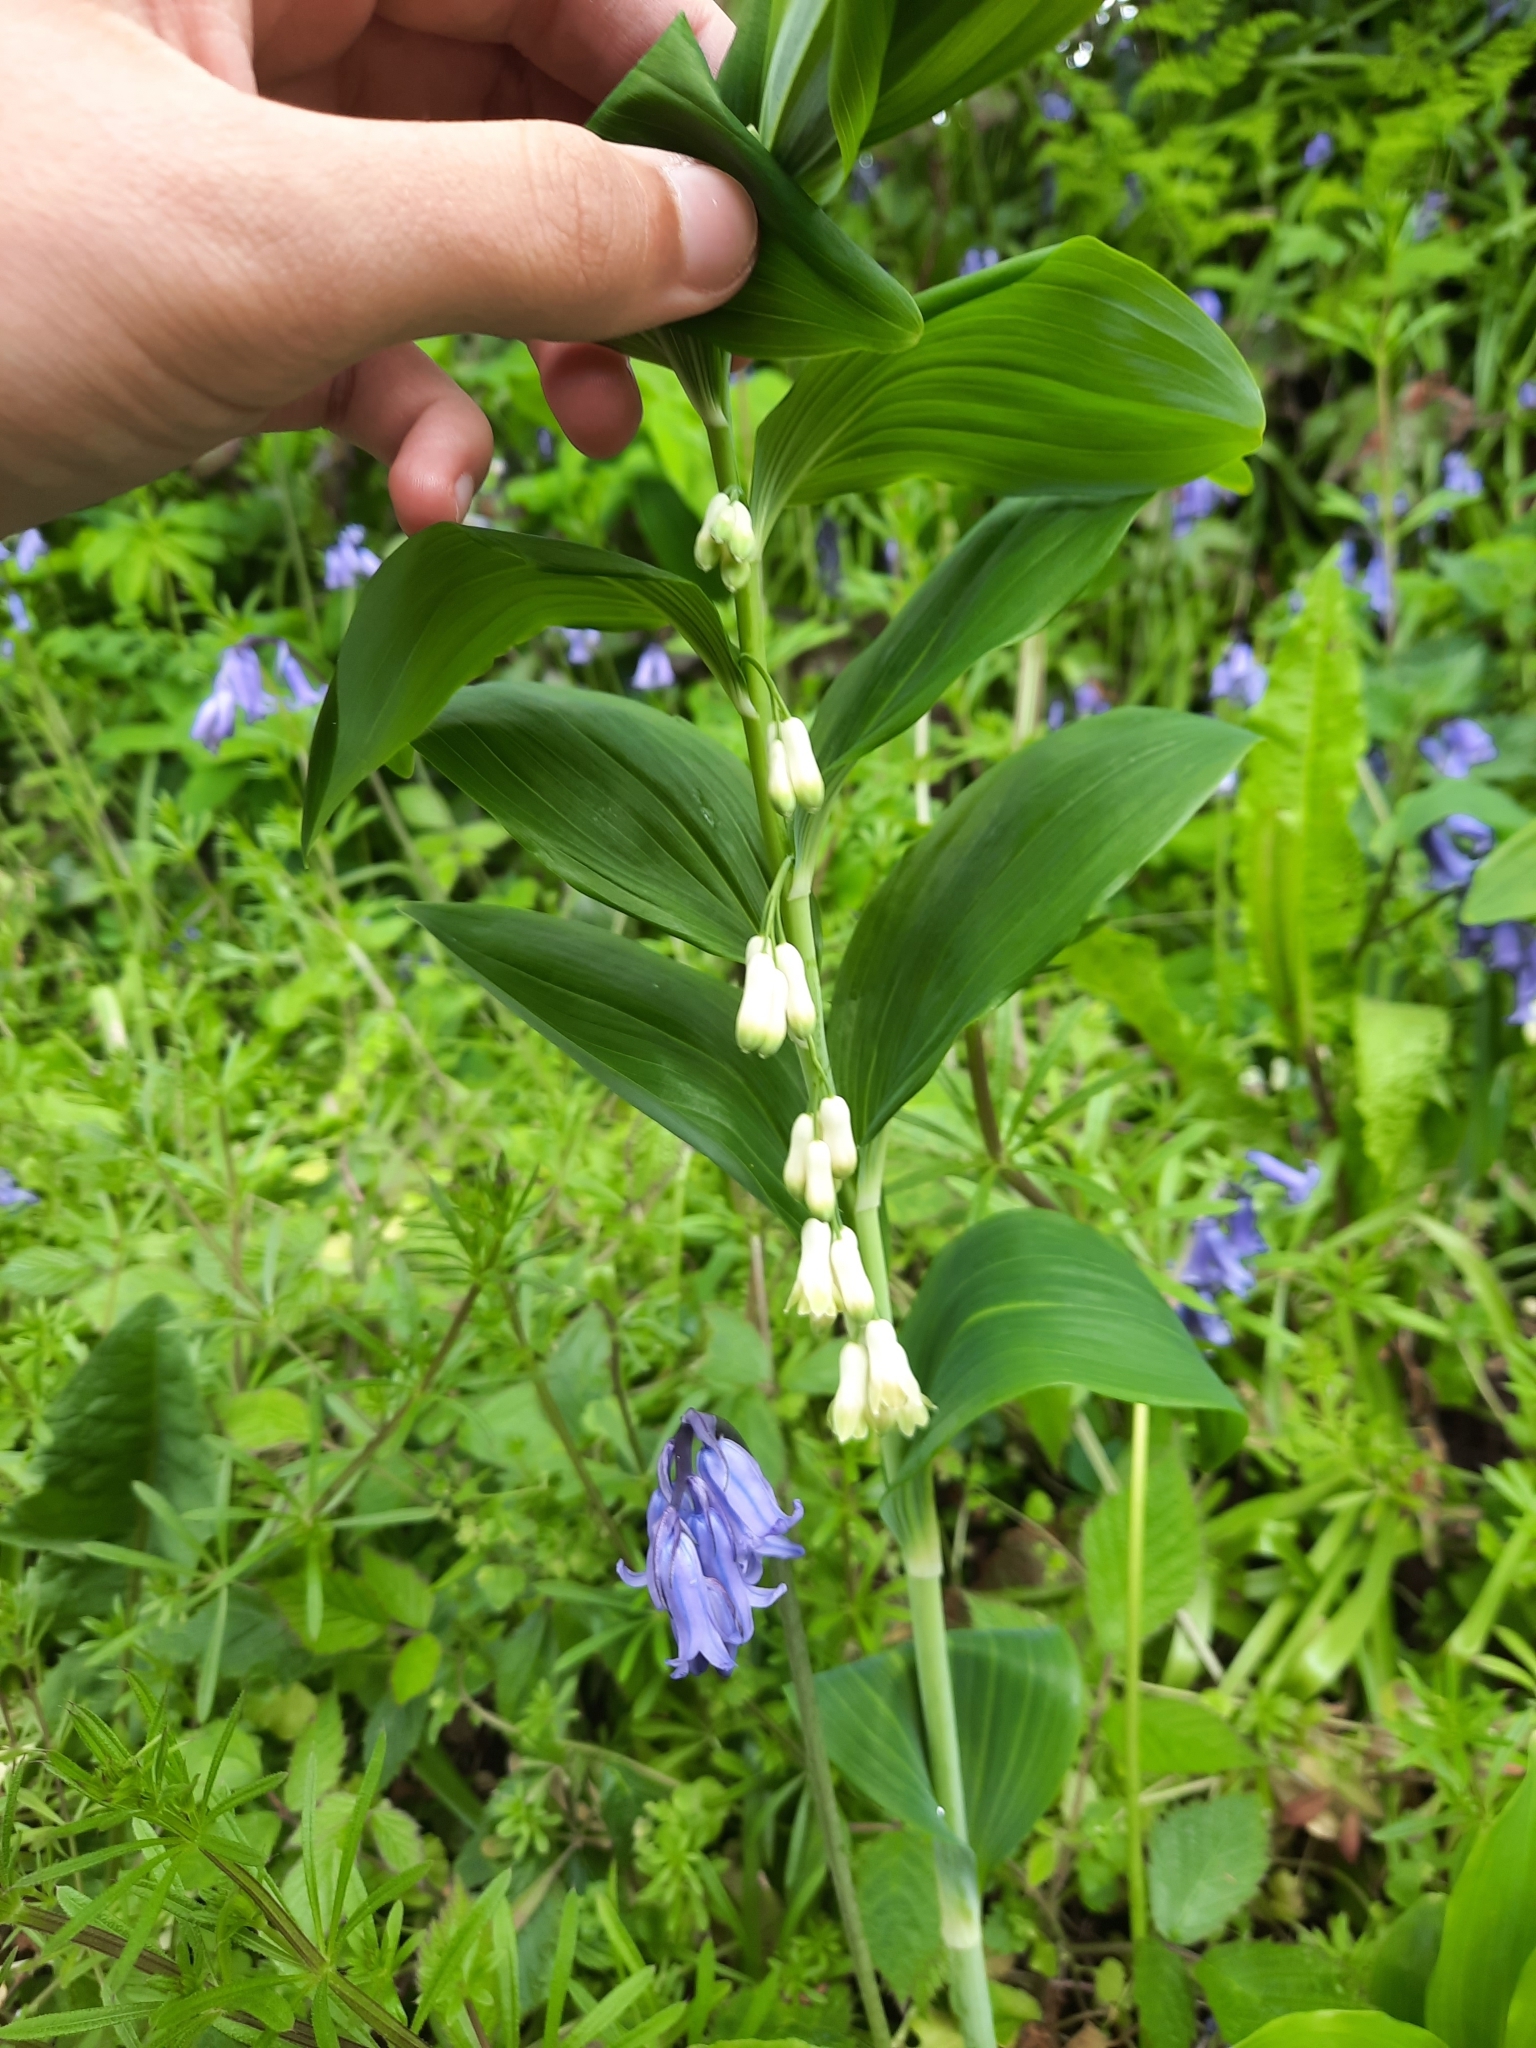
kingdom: Plantae
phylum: Tracheophyta
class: Liliopsida
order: Asparagales
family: Asparagaceae
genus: Polygonatum
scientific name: Polygonatum multiflorum
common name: Solomon's-seal
